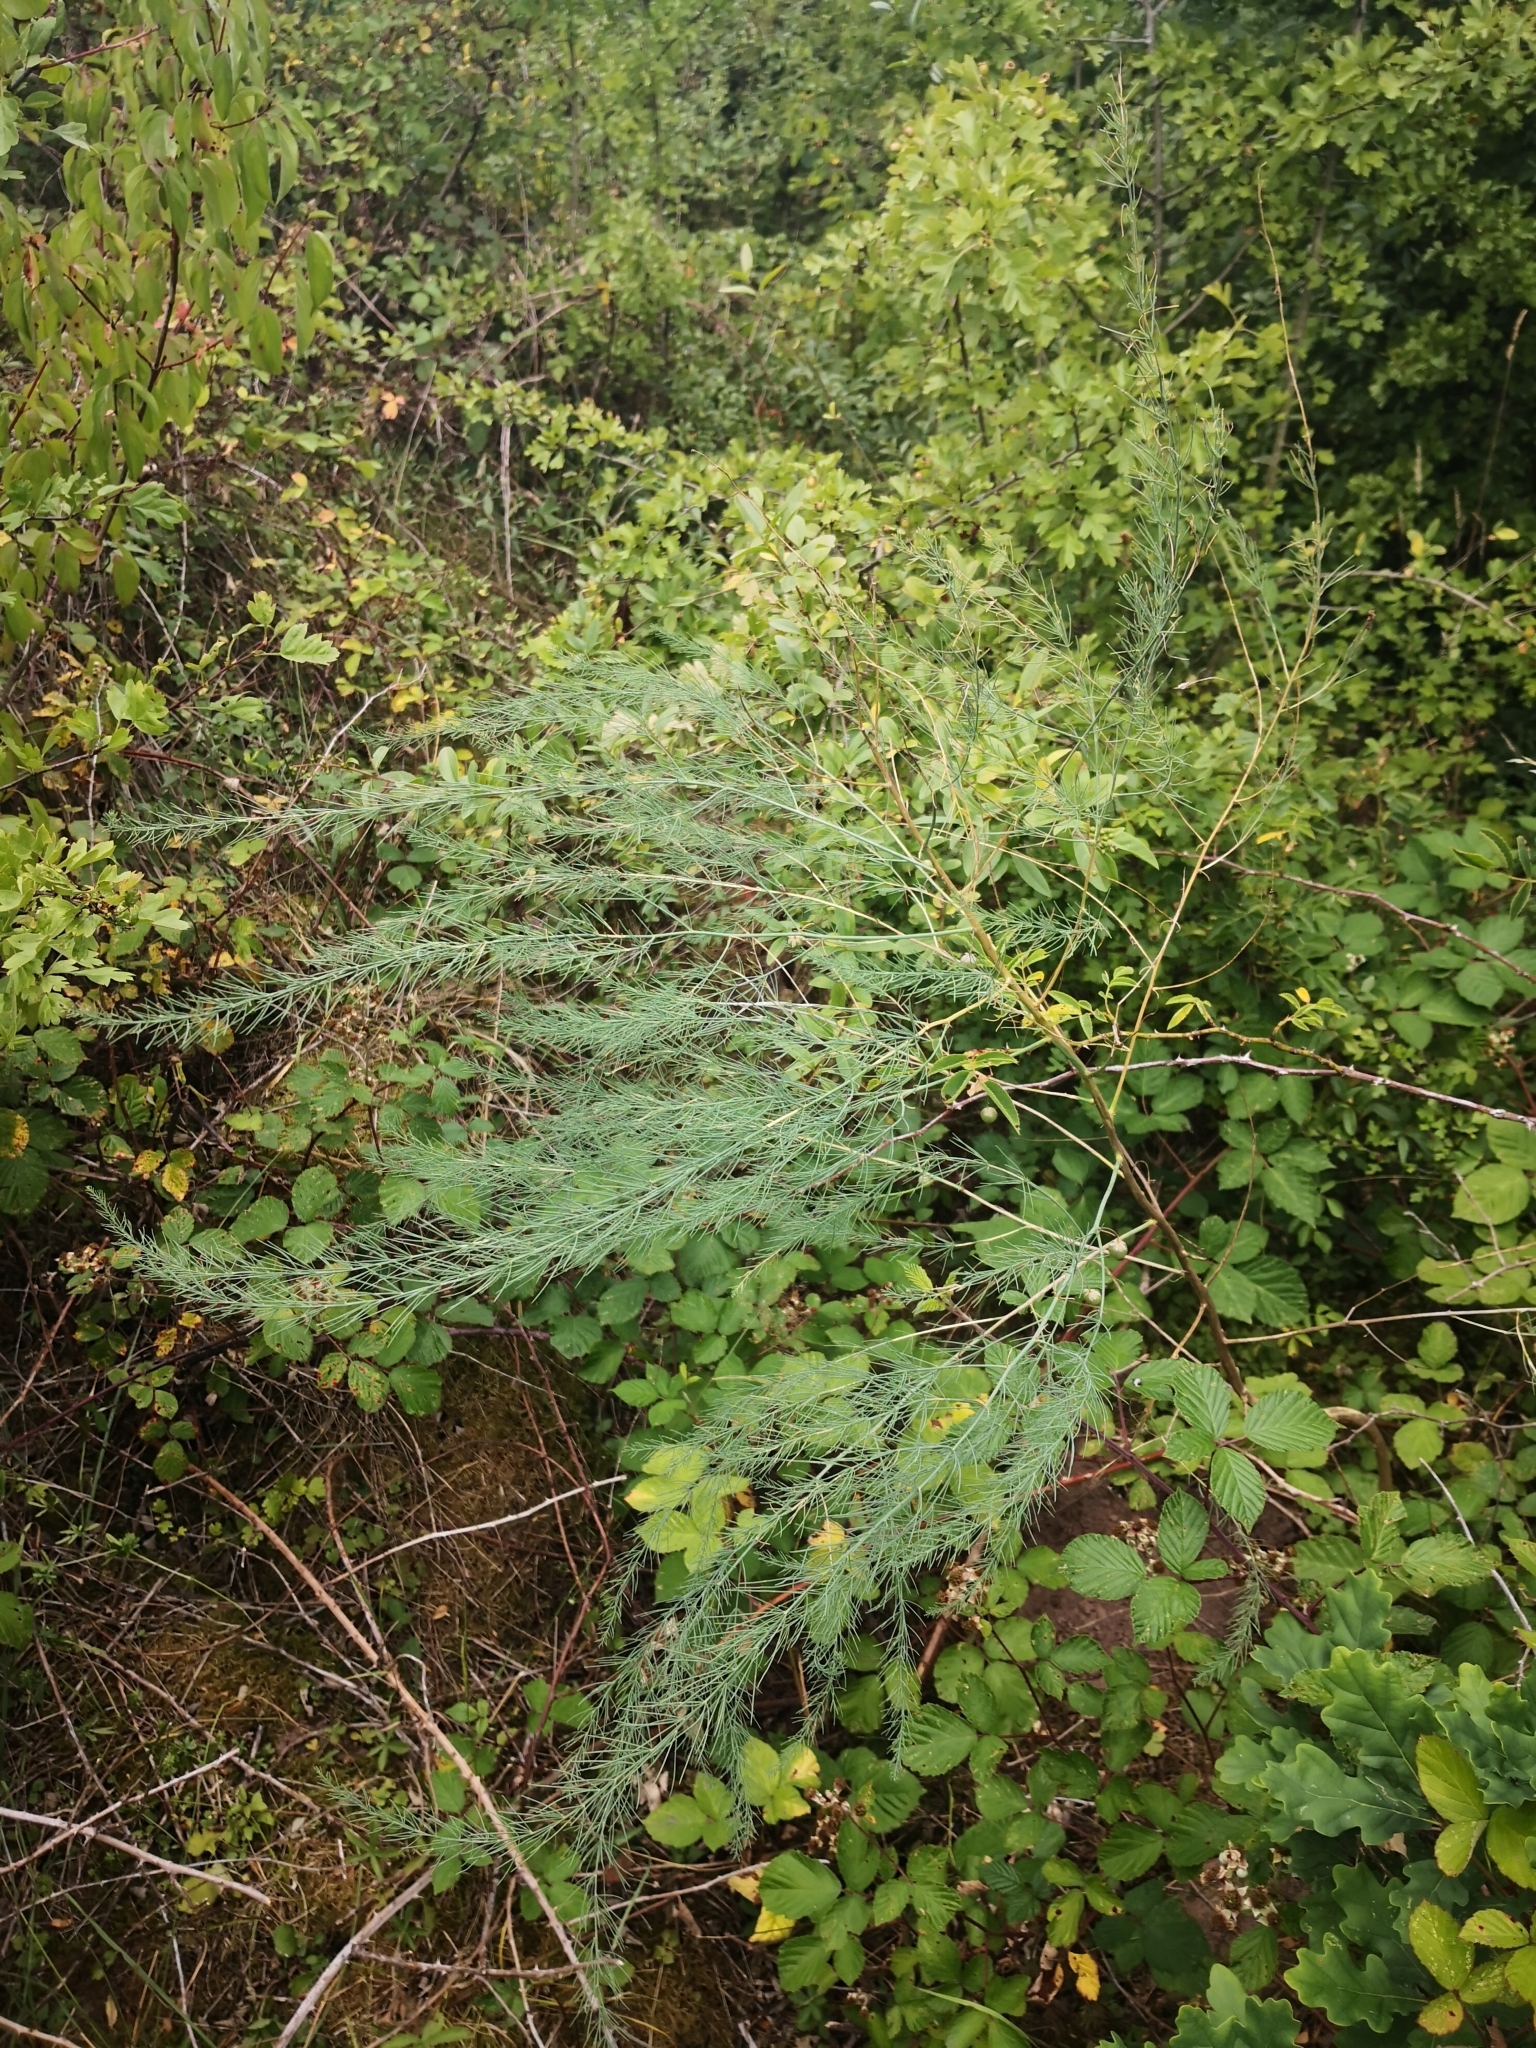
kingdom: Plantae
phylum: Tracheophyta
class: Liliopsida
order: Asparagales
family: Asparagaceae
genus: Asparagus
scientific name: Asparagus officinalis
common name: Garden asparagus
